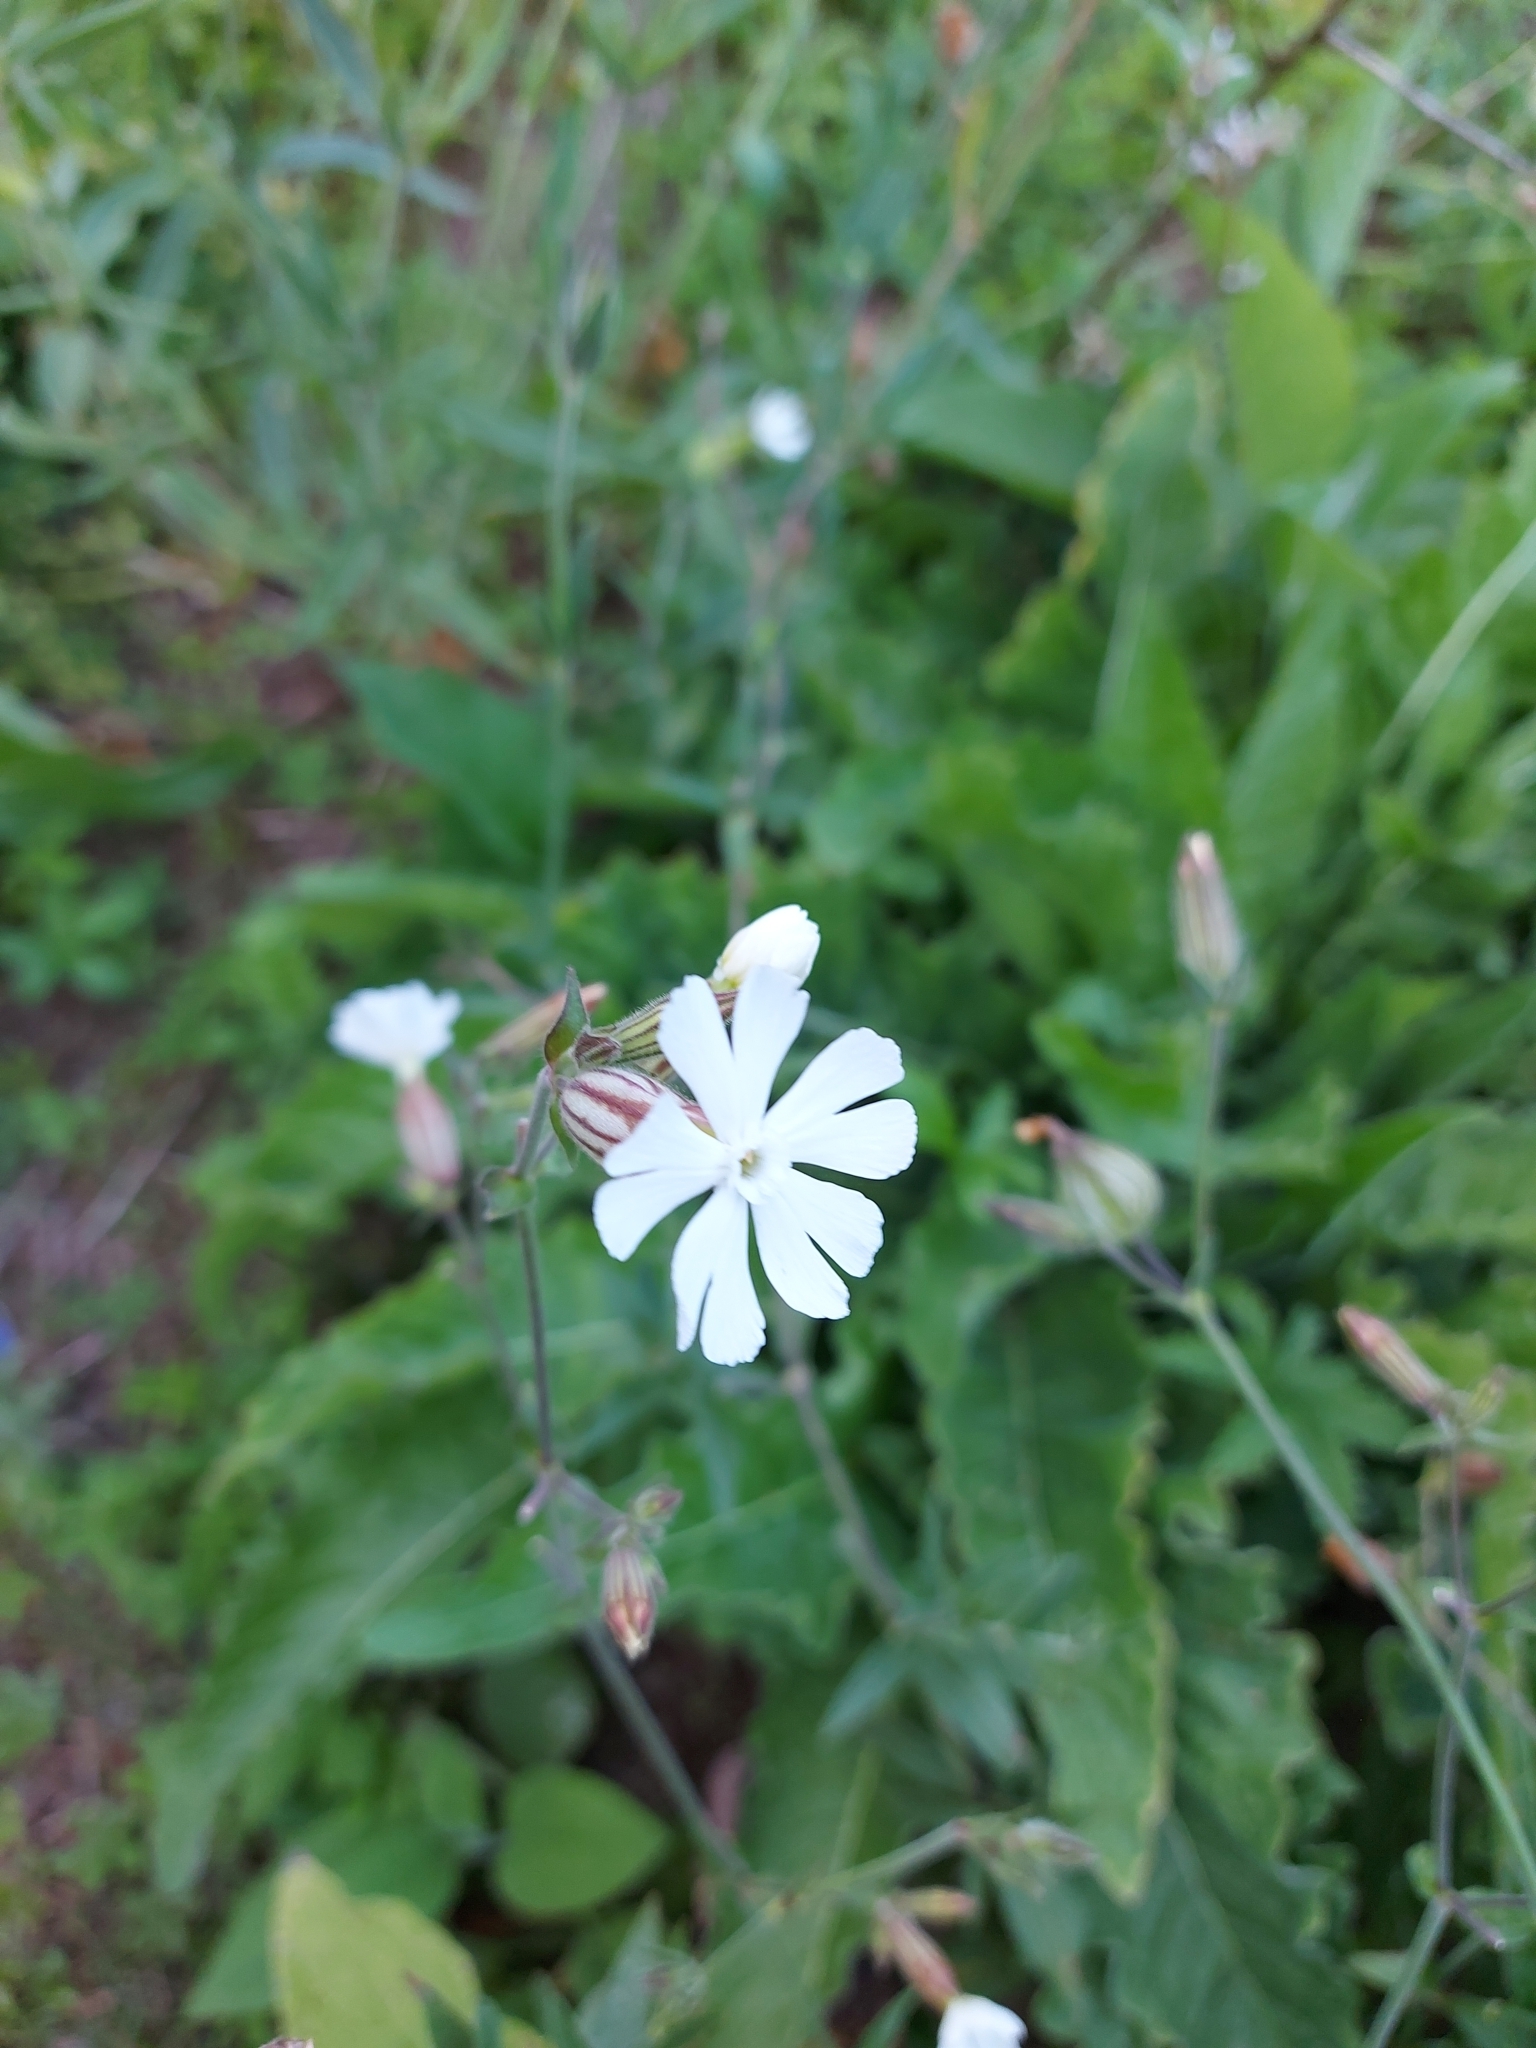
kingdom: Plantae
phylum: Tracheophyta
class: Magnoliopsida
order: Caryophyllales
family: Caryophyllaceae
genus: Silene
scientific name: Silene latifolia
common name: White campion
